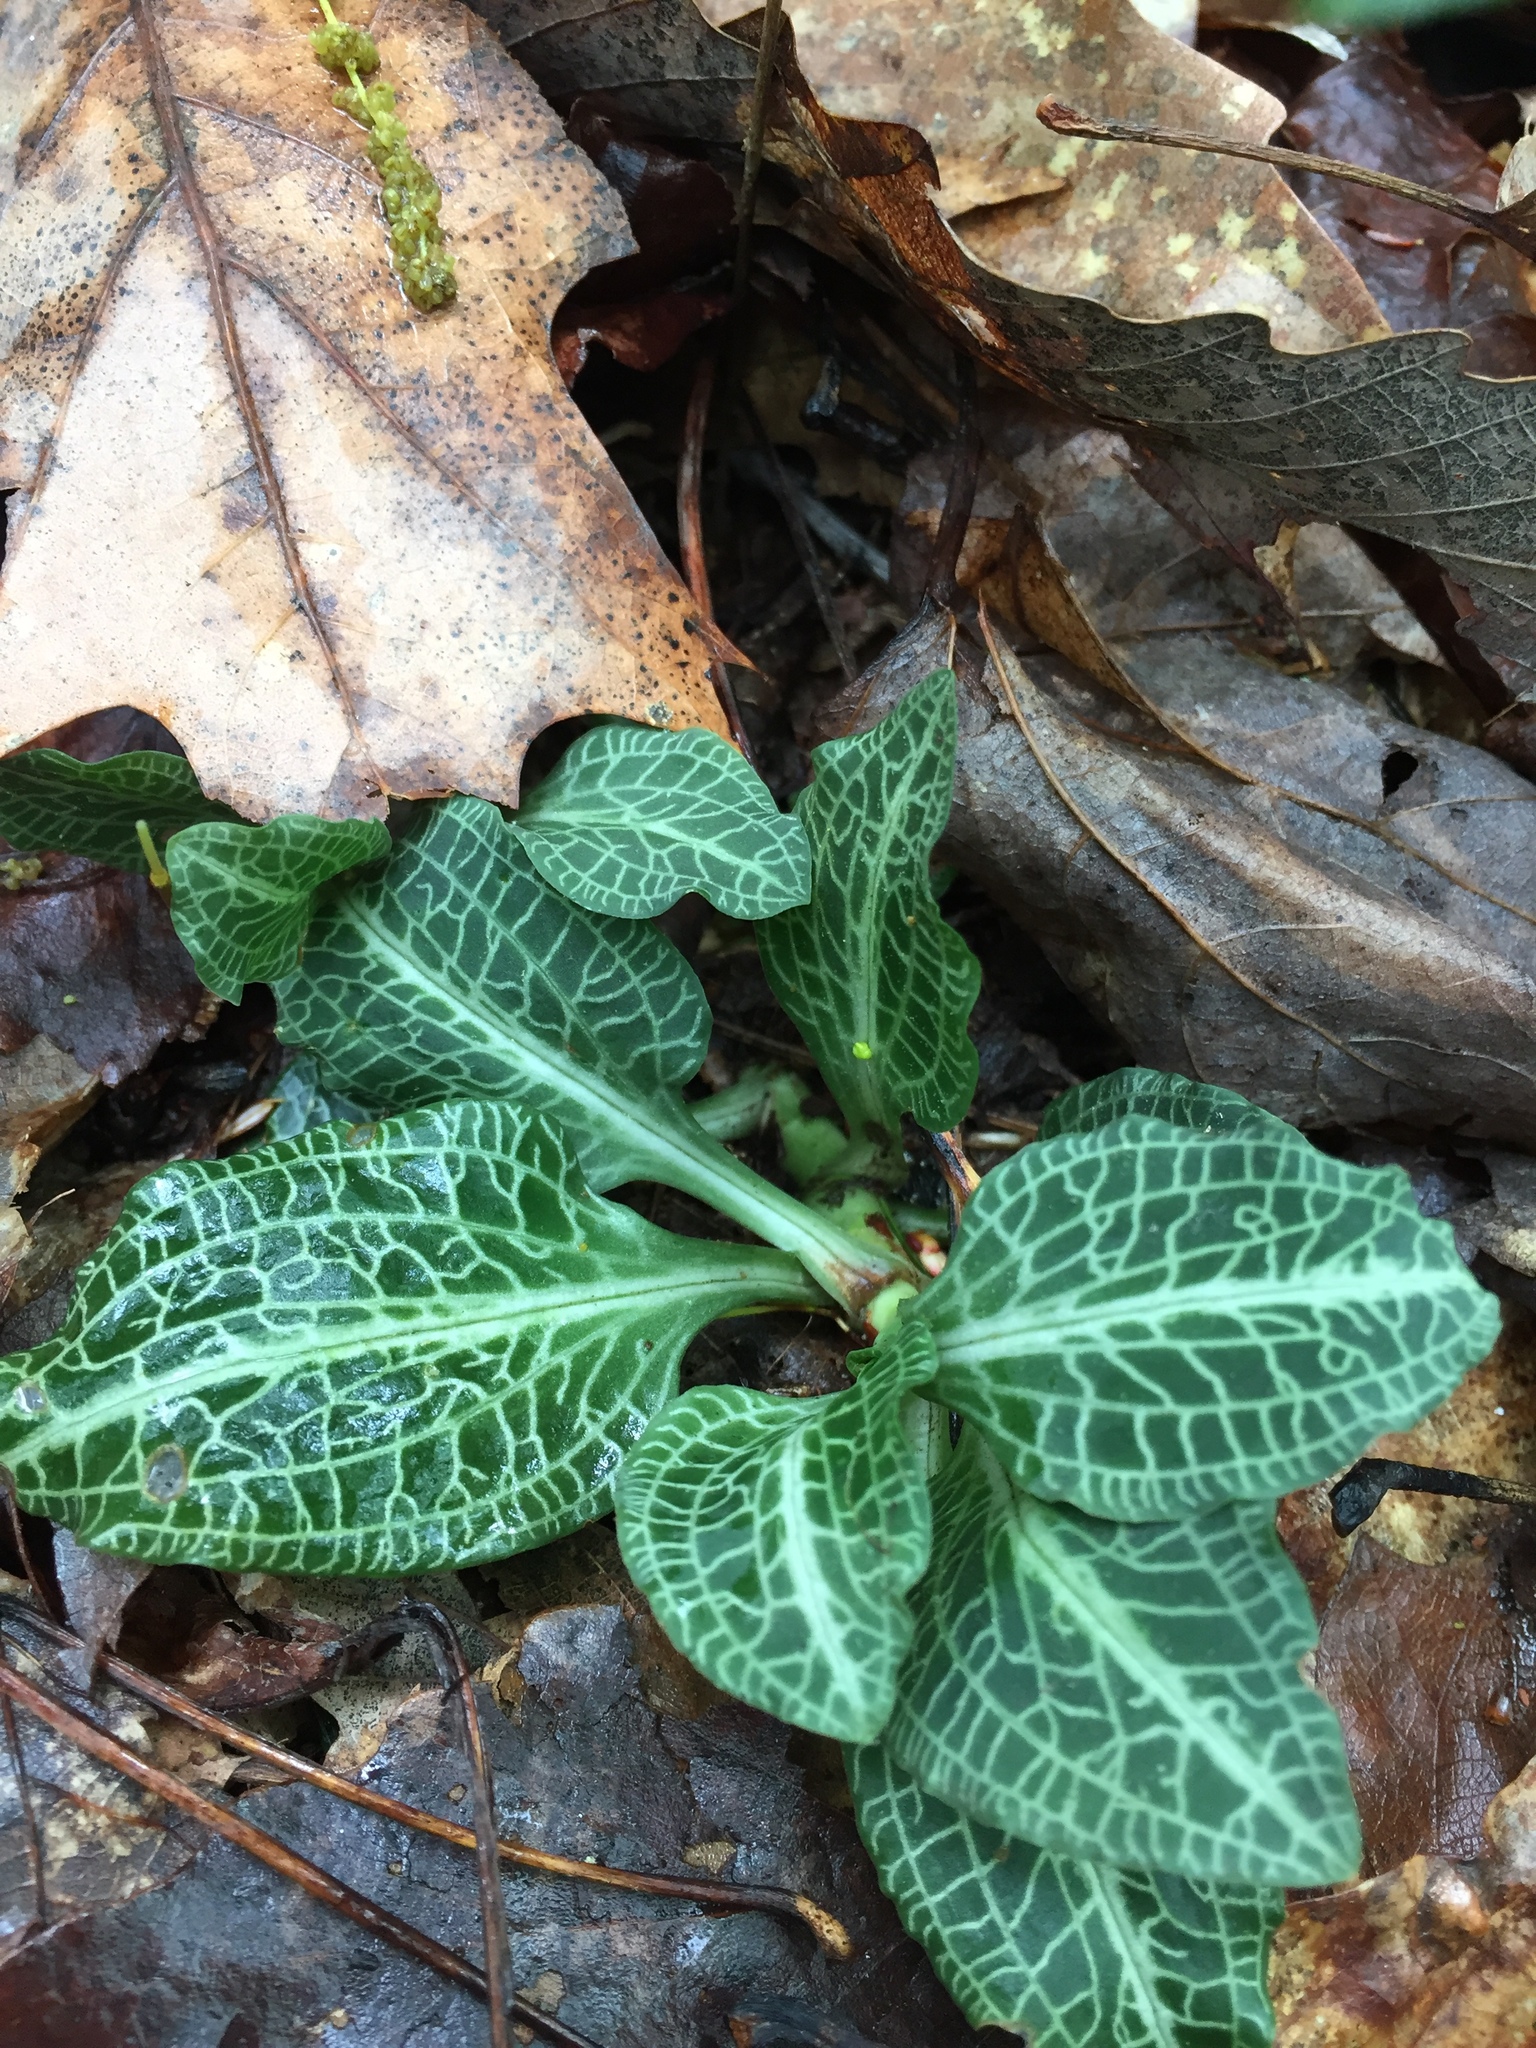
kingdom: Plantae
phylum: Tracheophyta
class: Liliopsida
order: Asparagales
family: Orchidaceae
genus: Goodyera
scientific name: Goodyera pubescens
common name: Downy rattlesnake-plantain
